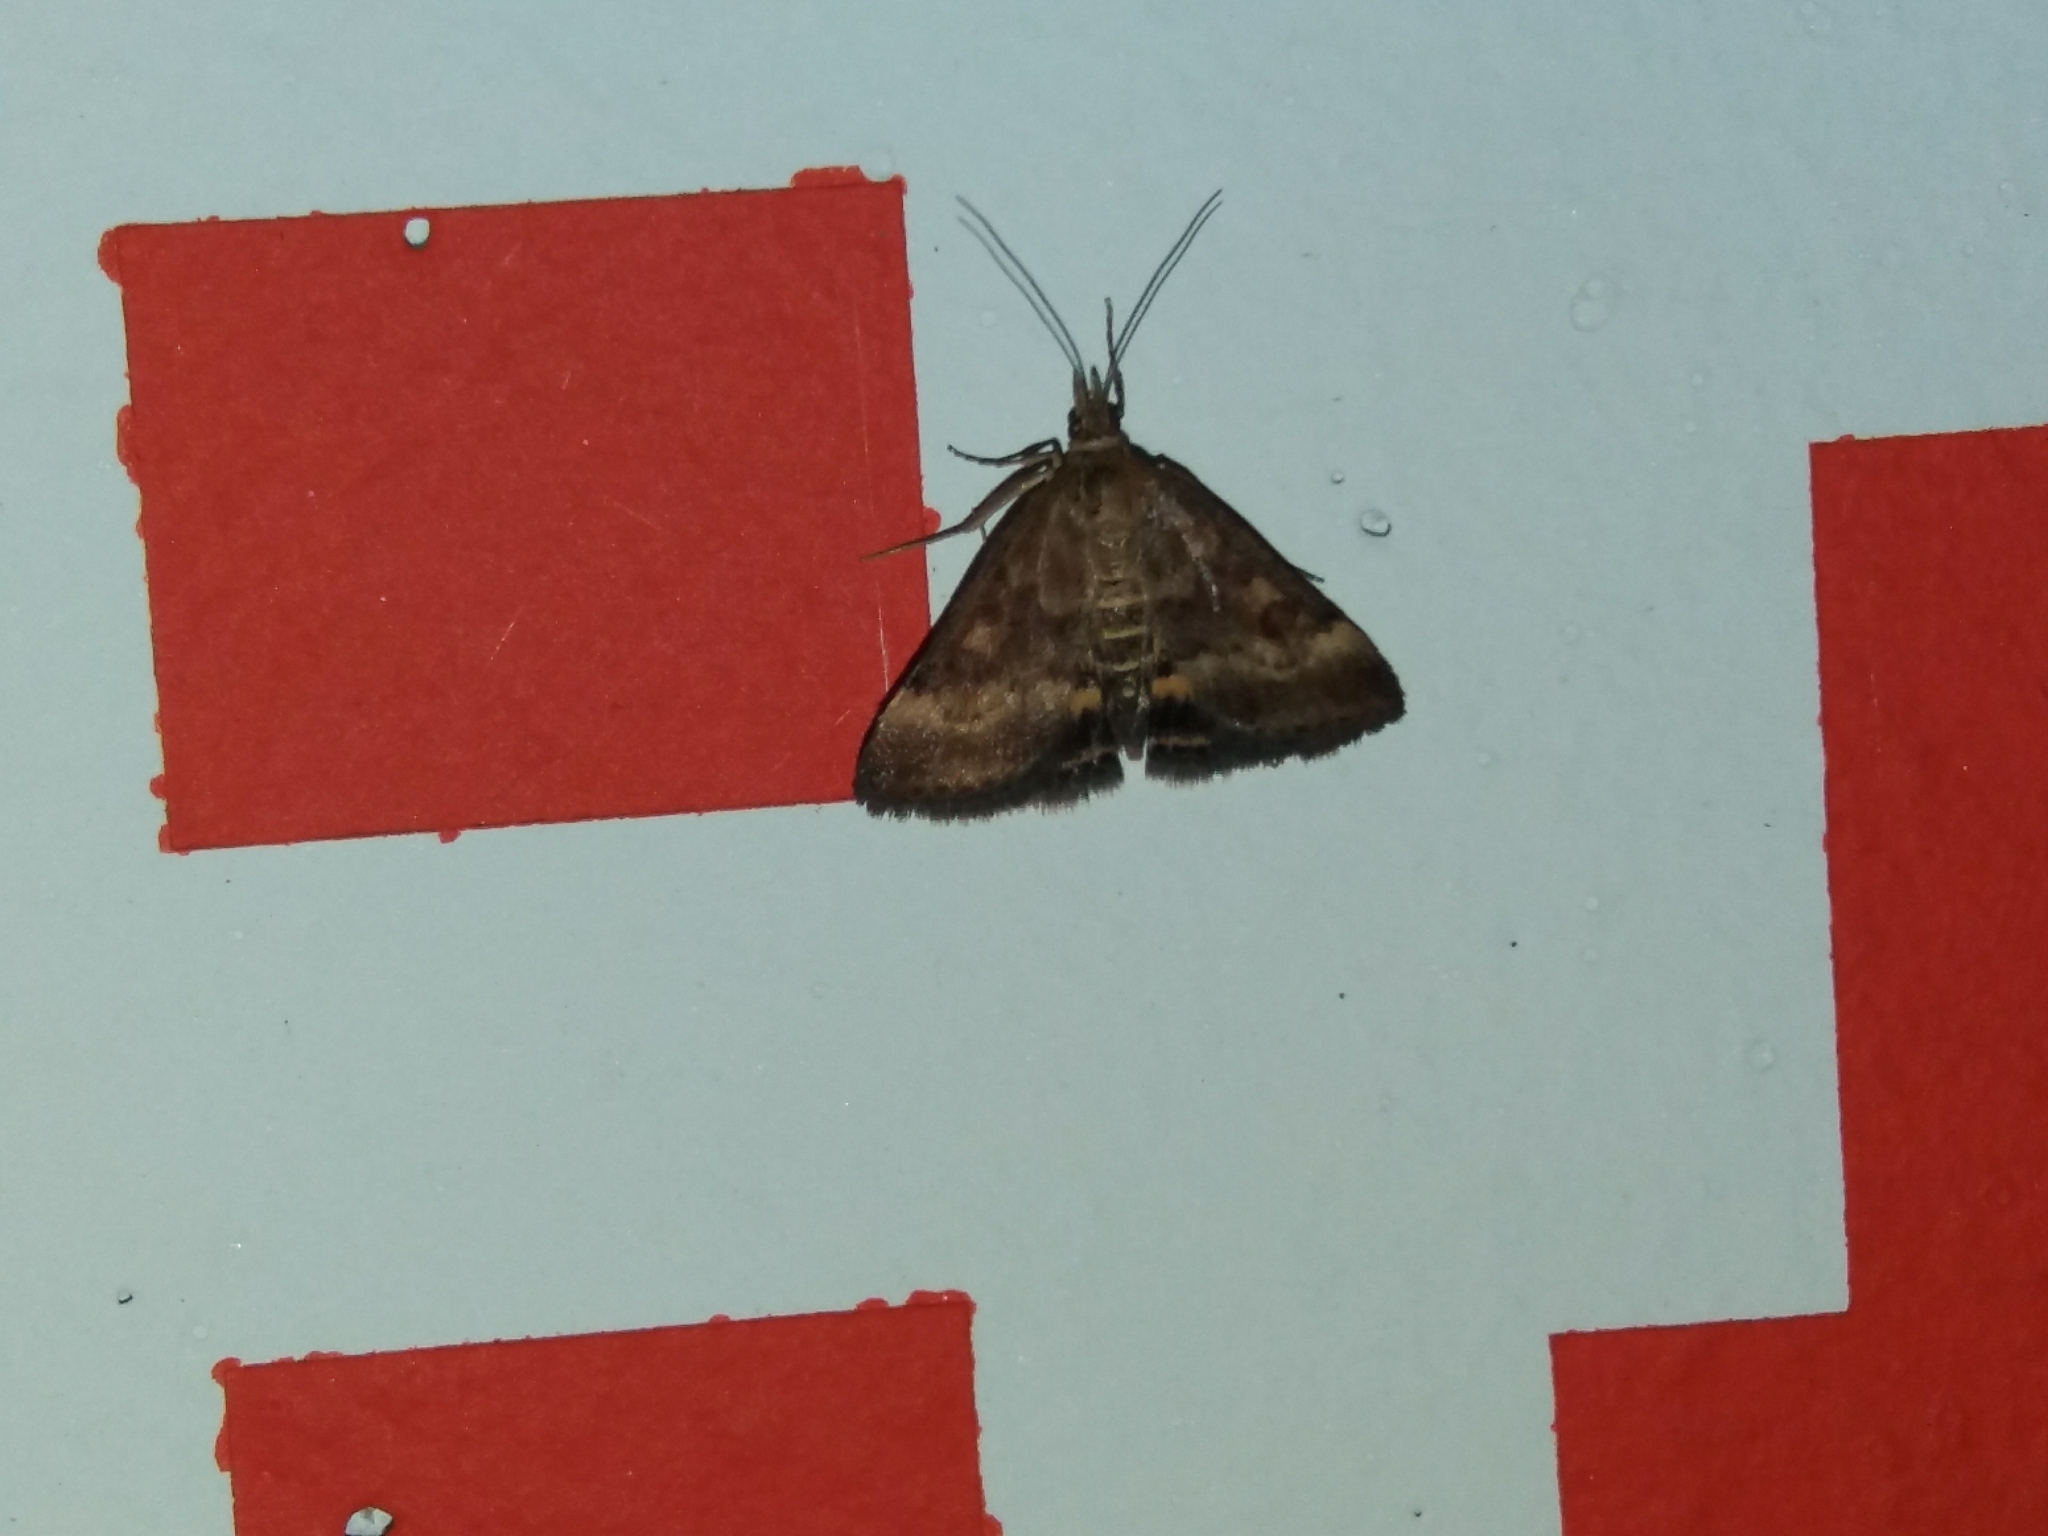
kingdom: Animalia
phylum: Arthropoda
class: Insecta
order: Lepidoptera
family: Crambidae
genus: Pyrausta
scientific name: Pyrausta despicata
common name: Straw-barred pearl
